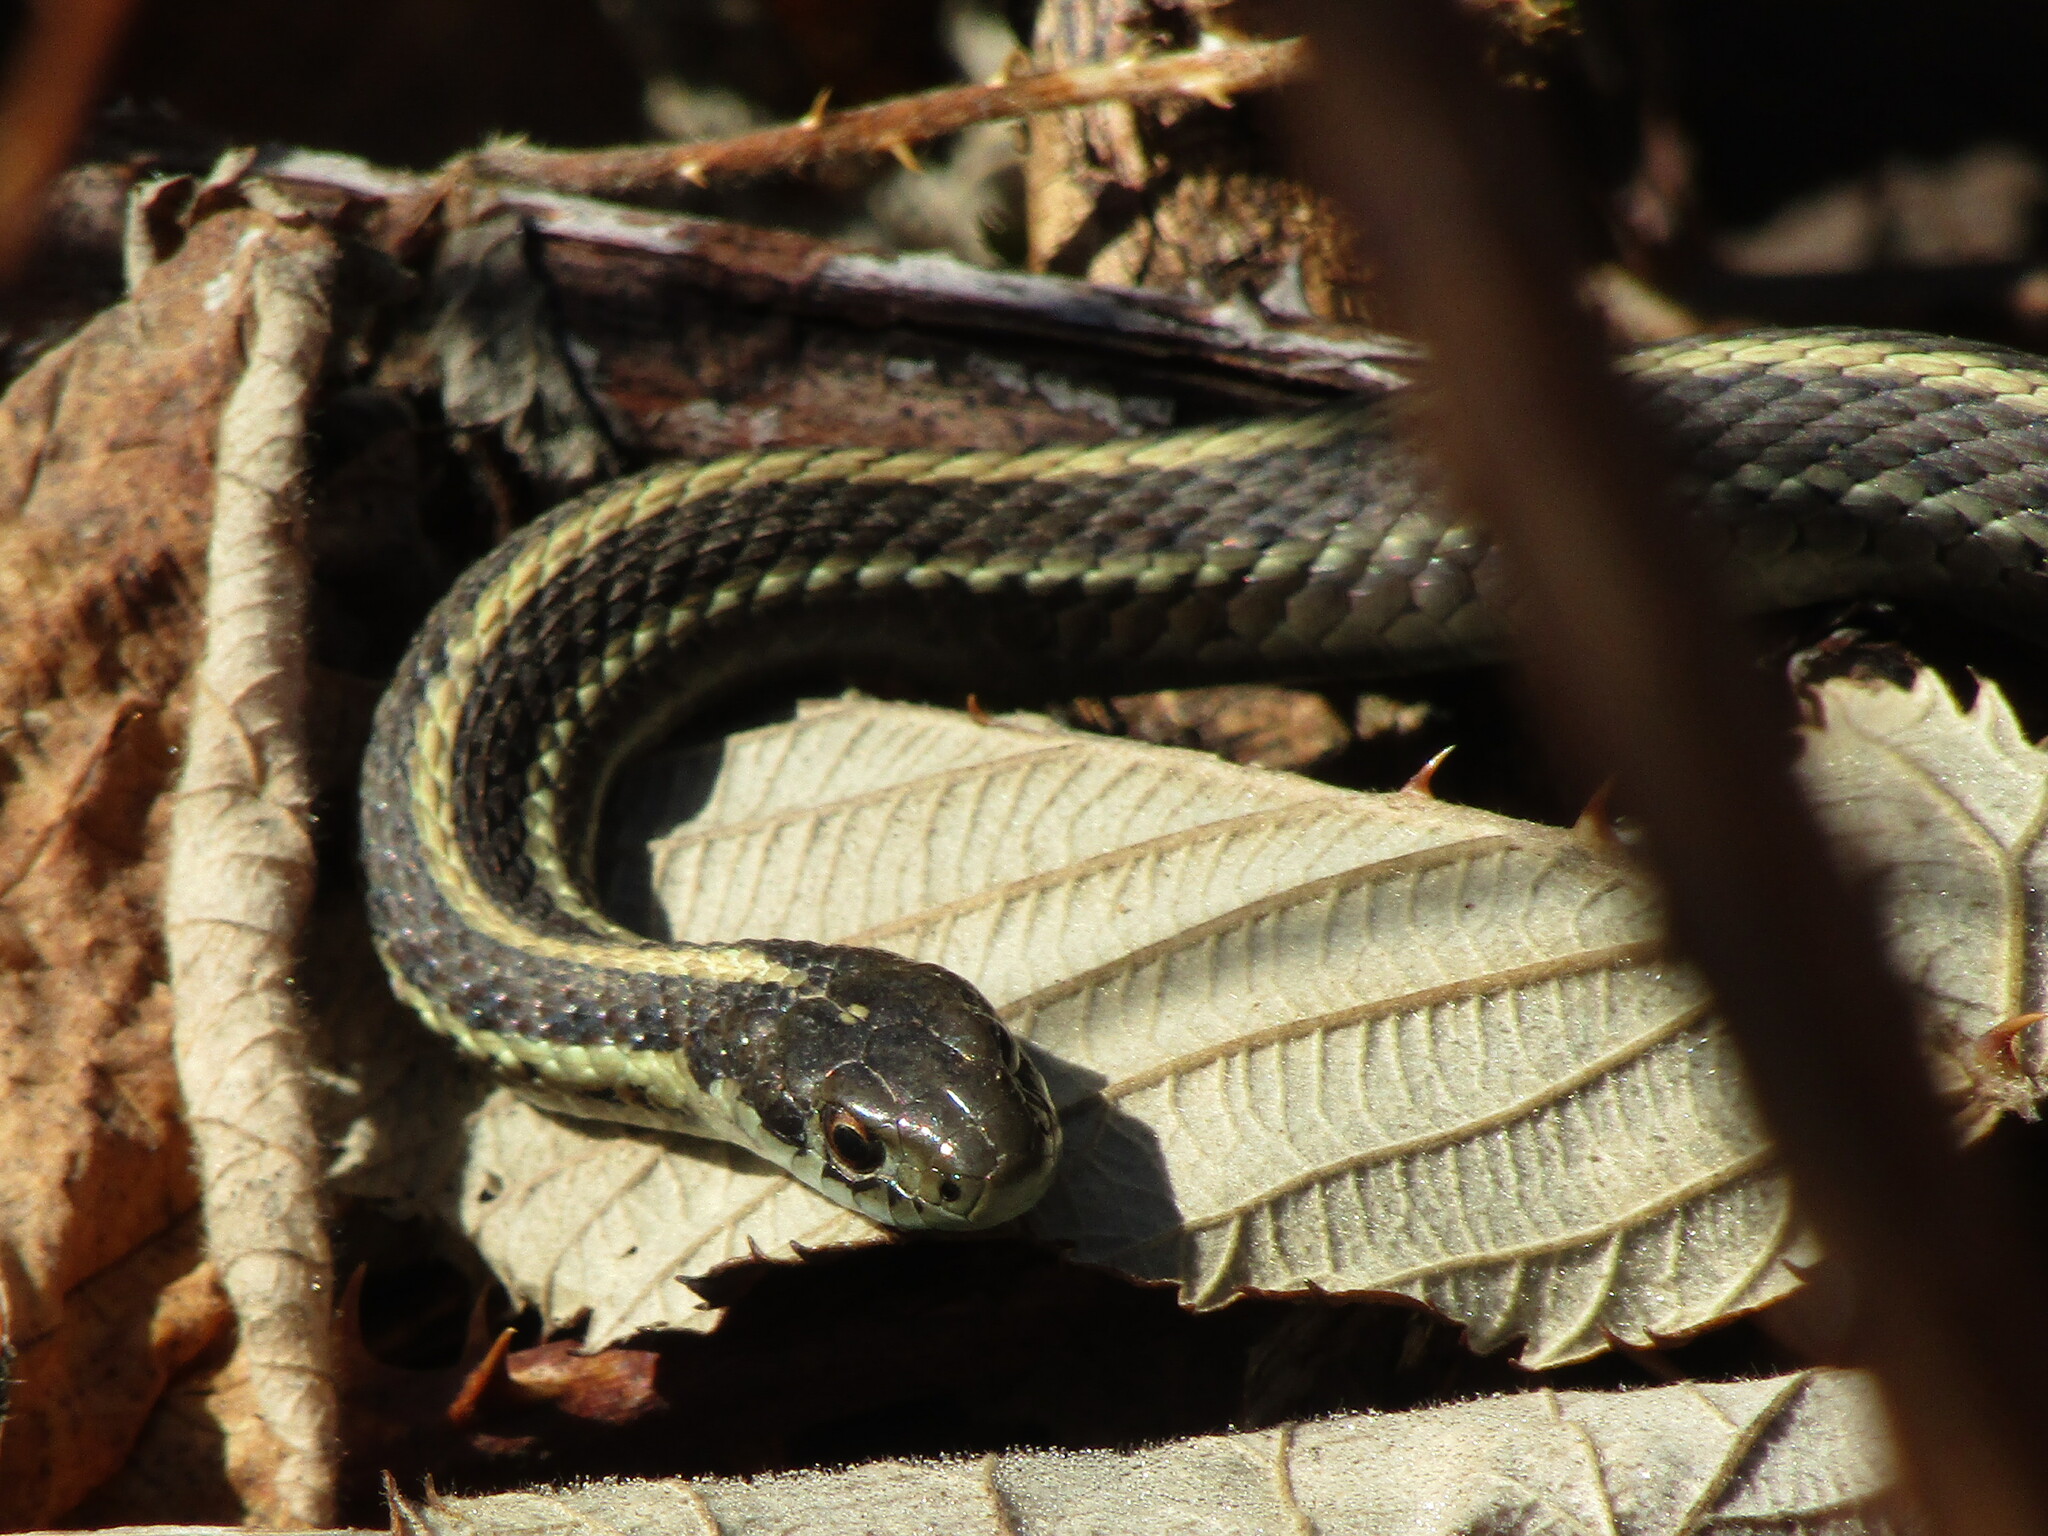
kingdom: Animalia
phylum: Chordata
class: Squamata
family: Colubridae
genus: Thamnophis
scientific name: Thamnophis ordinoides
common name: Northwestern garter snake
